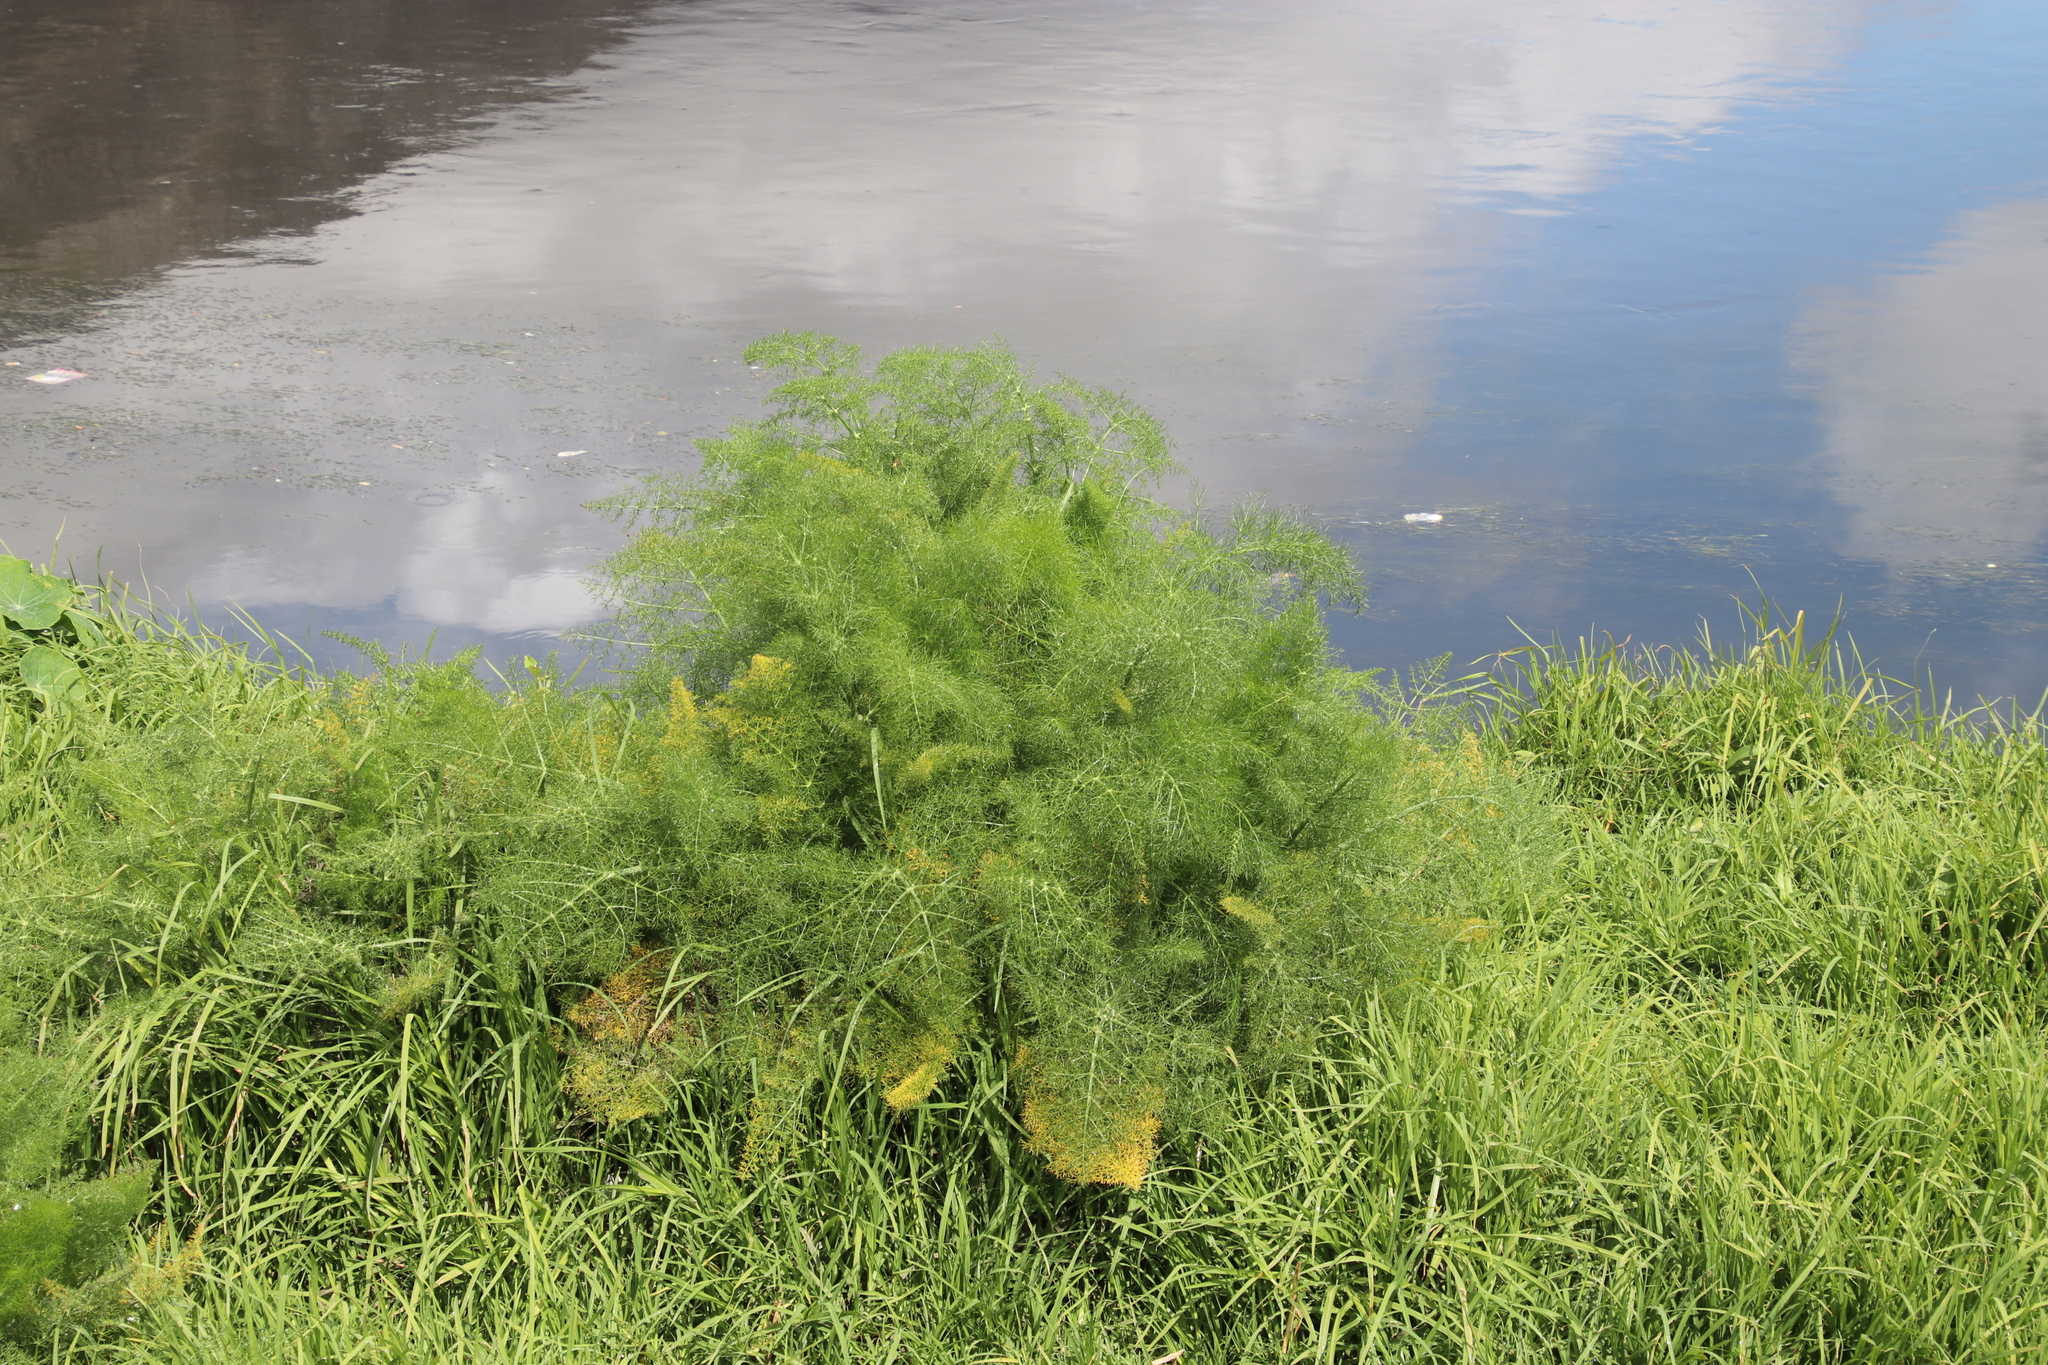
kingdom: Plantae
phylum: Tracheophyta
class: Magnoliopsida
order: Apiales
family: Apiaceae
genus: Foeniculum
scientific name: Foeniculum vulgare
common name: Fennel
